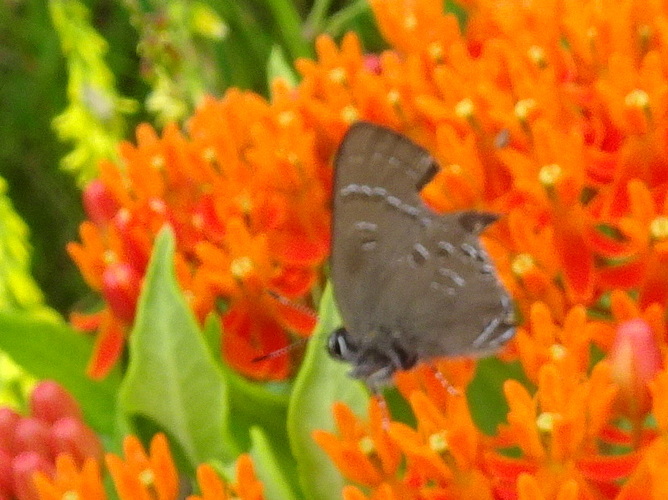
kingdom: Animalia
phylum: Arthropoda
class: Insecta
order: Lepidoptera
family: Lycaenidae
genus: Satyrium
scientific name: Satyrium calanus
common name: Banded hairstreak
